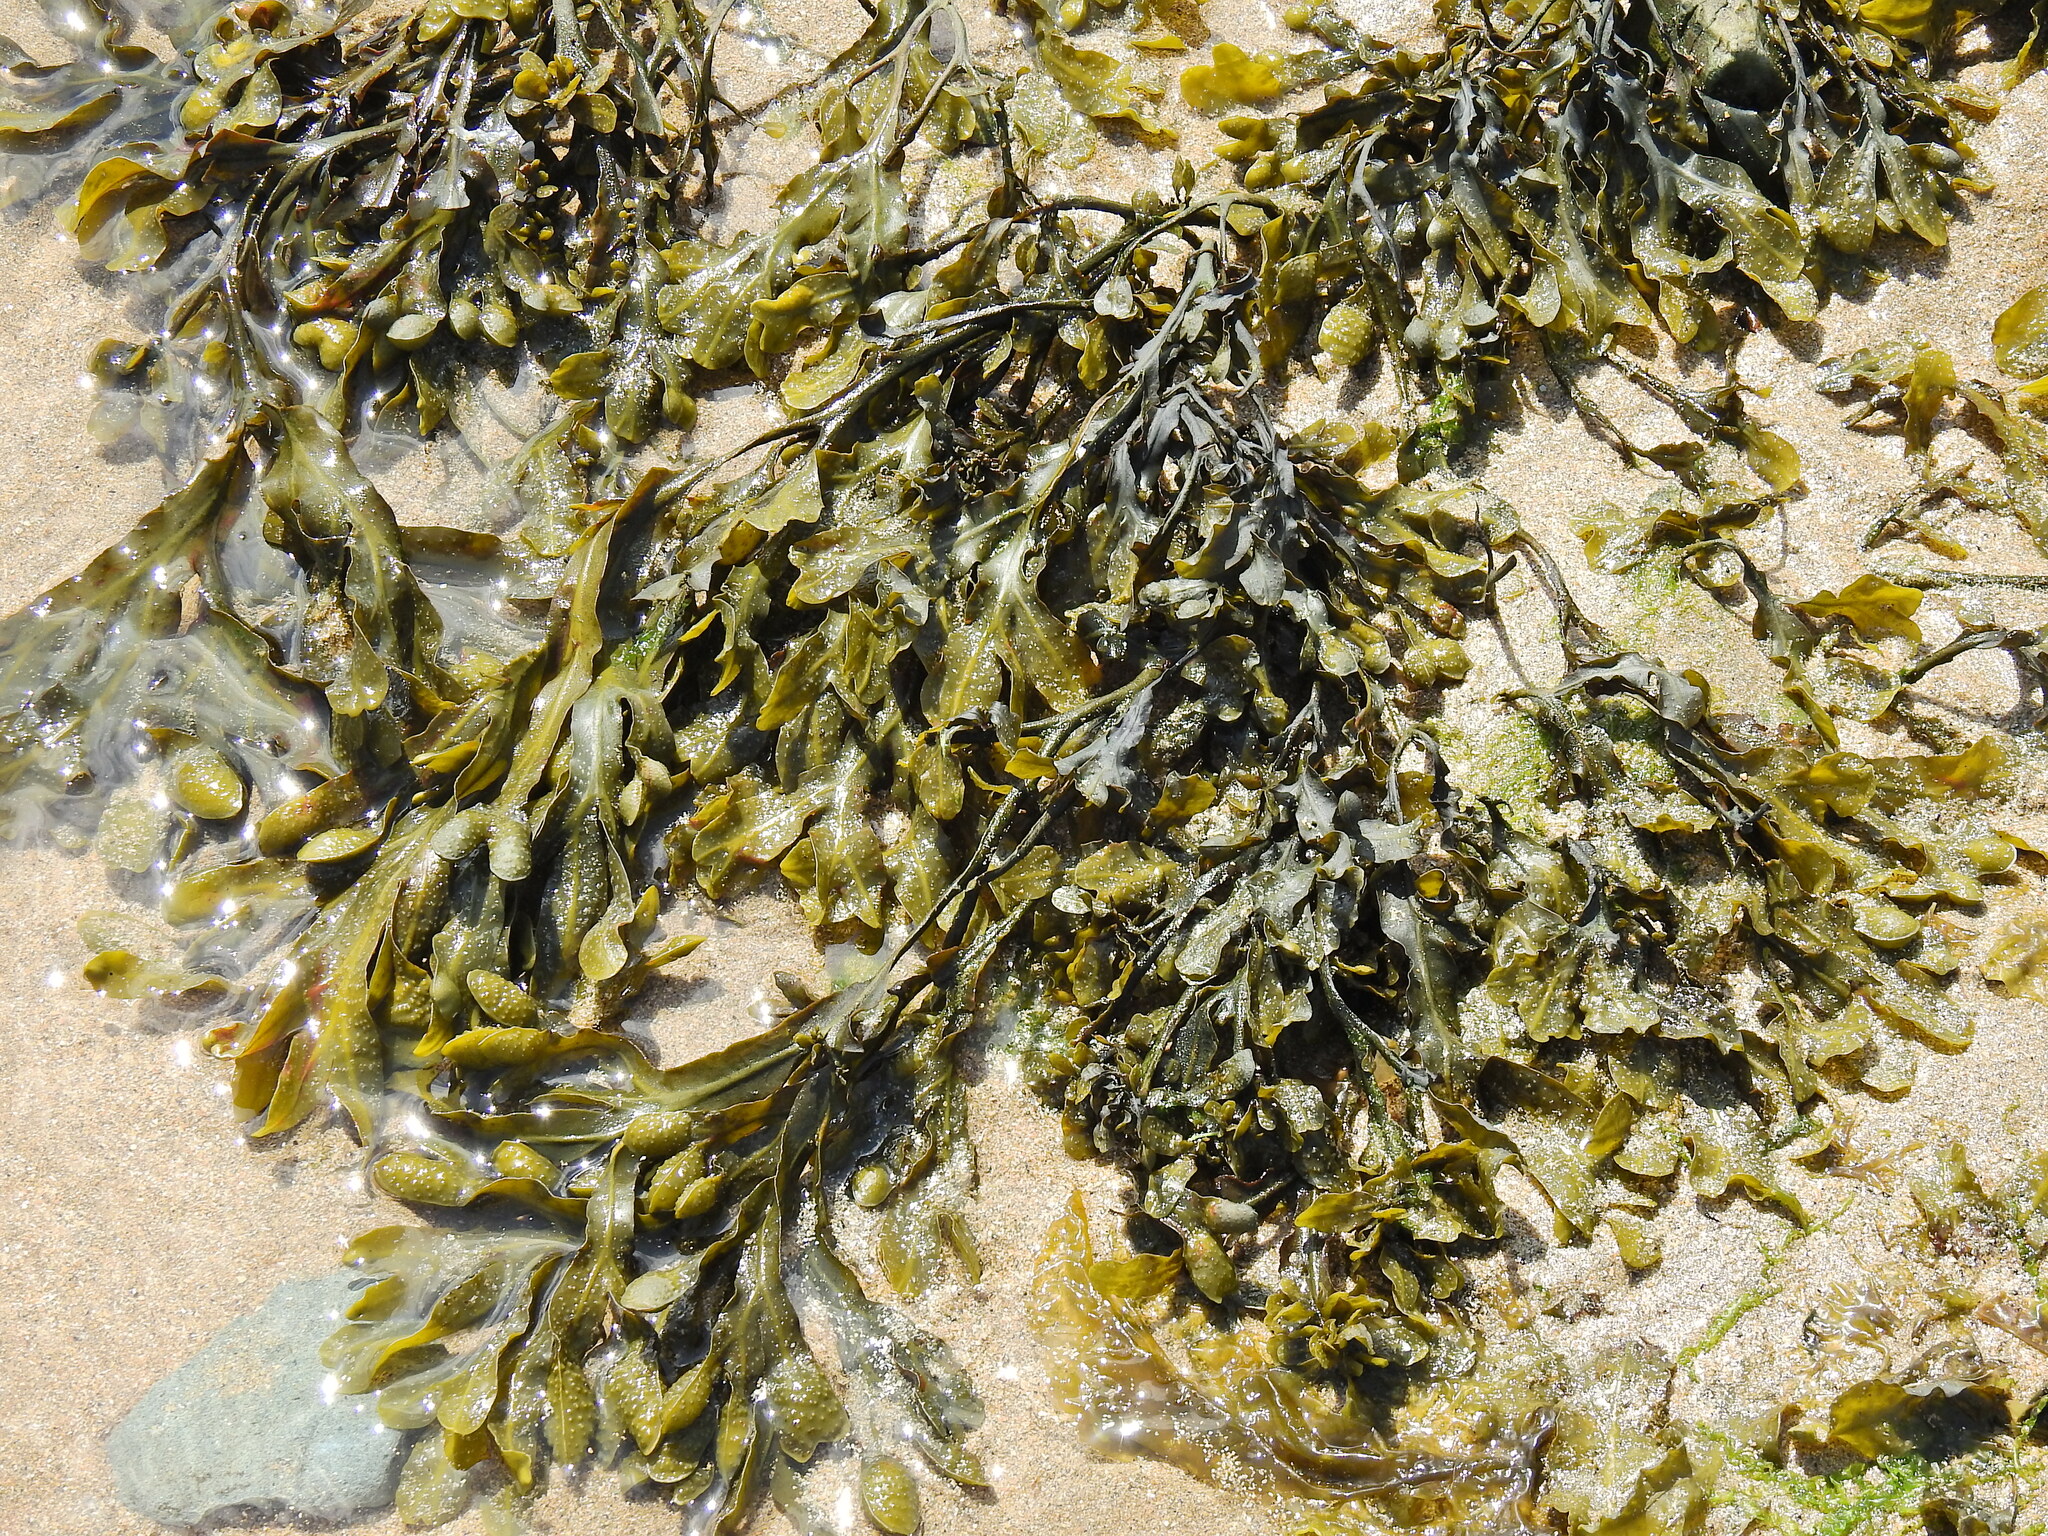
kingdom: Chromista
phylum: Ochrophyta
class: Phaeophyceae
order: Fucales
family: Fucaceae
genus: Fucus
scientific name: Fucus spiralis
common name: Spiral wrack
